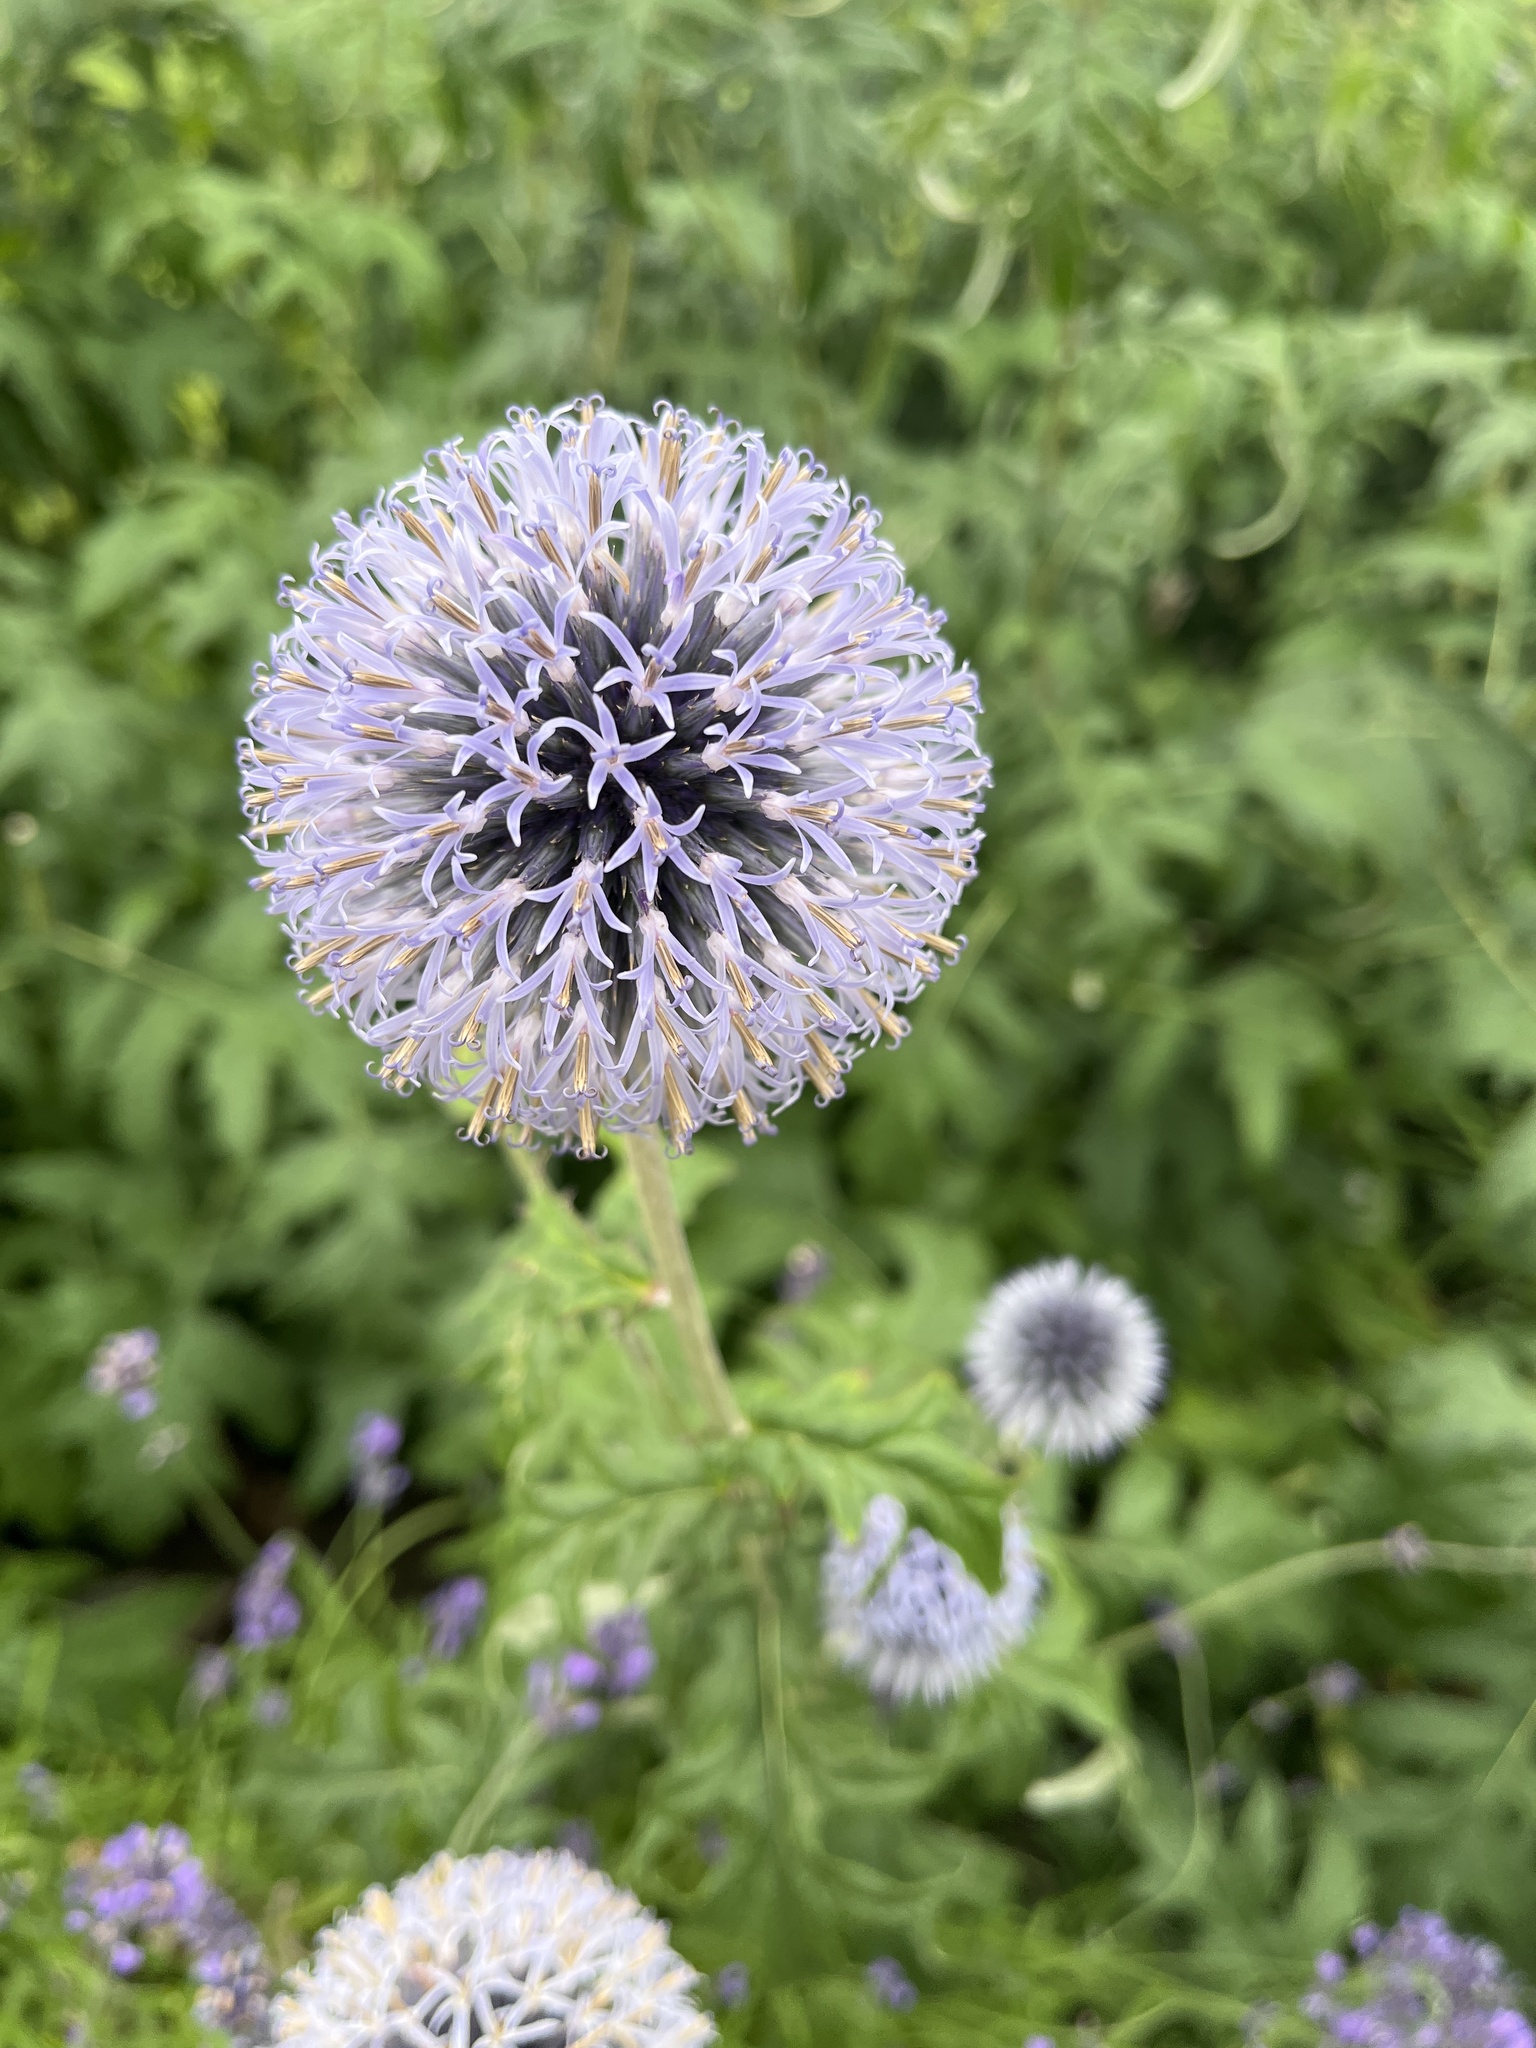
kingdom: Plantae
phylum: Tracheophyta
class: Magnoliopsida
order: Asterales
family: Asteraceae
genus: Echinops
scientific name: Echinops bannaticus
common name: Blue globe-thistle
